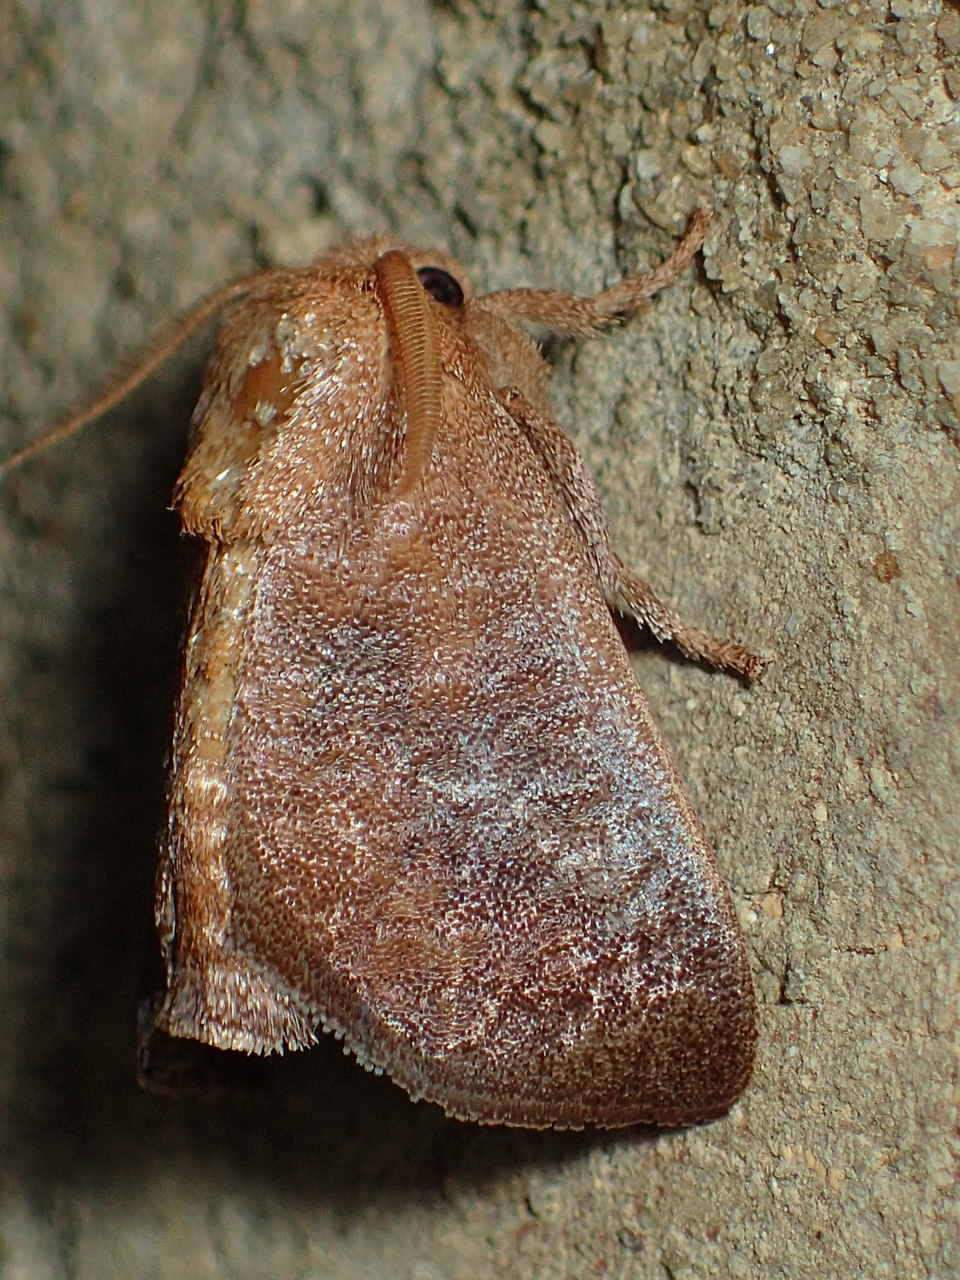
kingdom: Animalia
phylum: Arthropoda
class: Insecta
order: Lepidoptera
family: Limacodidae
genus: Isa
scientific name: Isa textula
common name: Crowned slug moth
